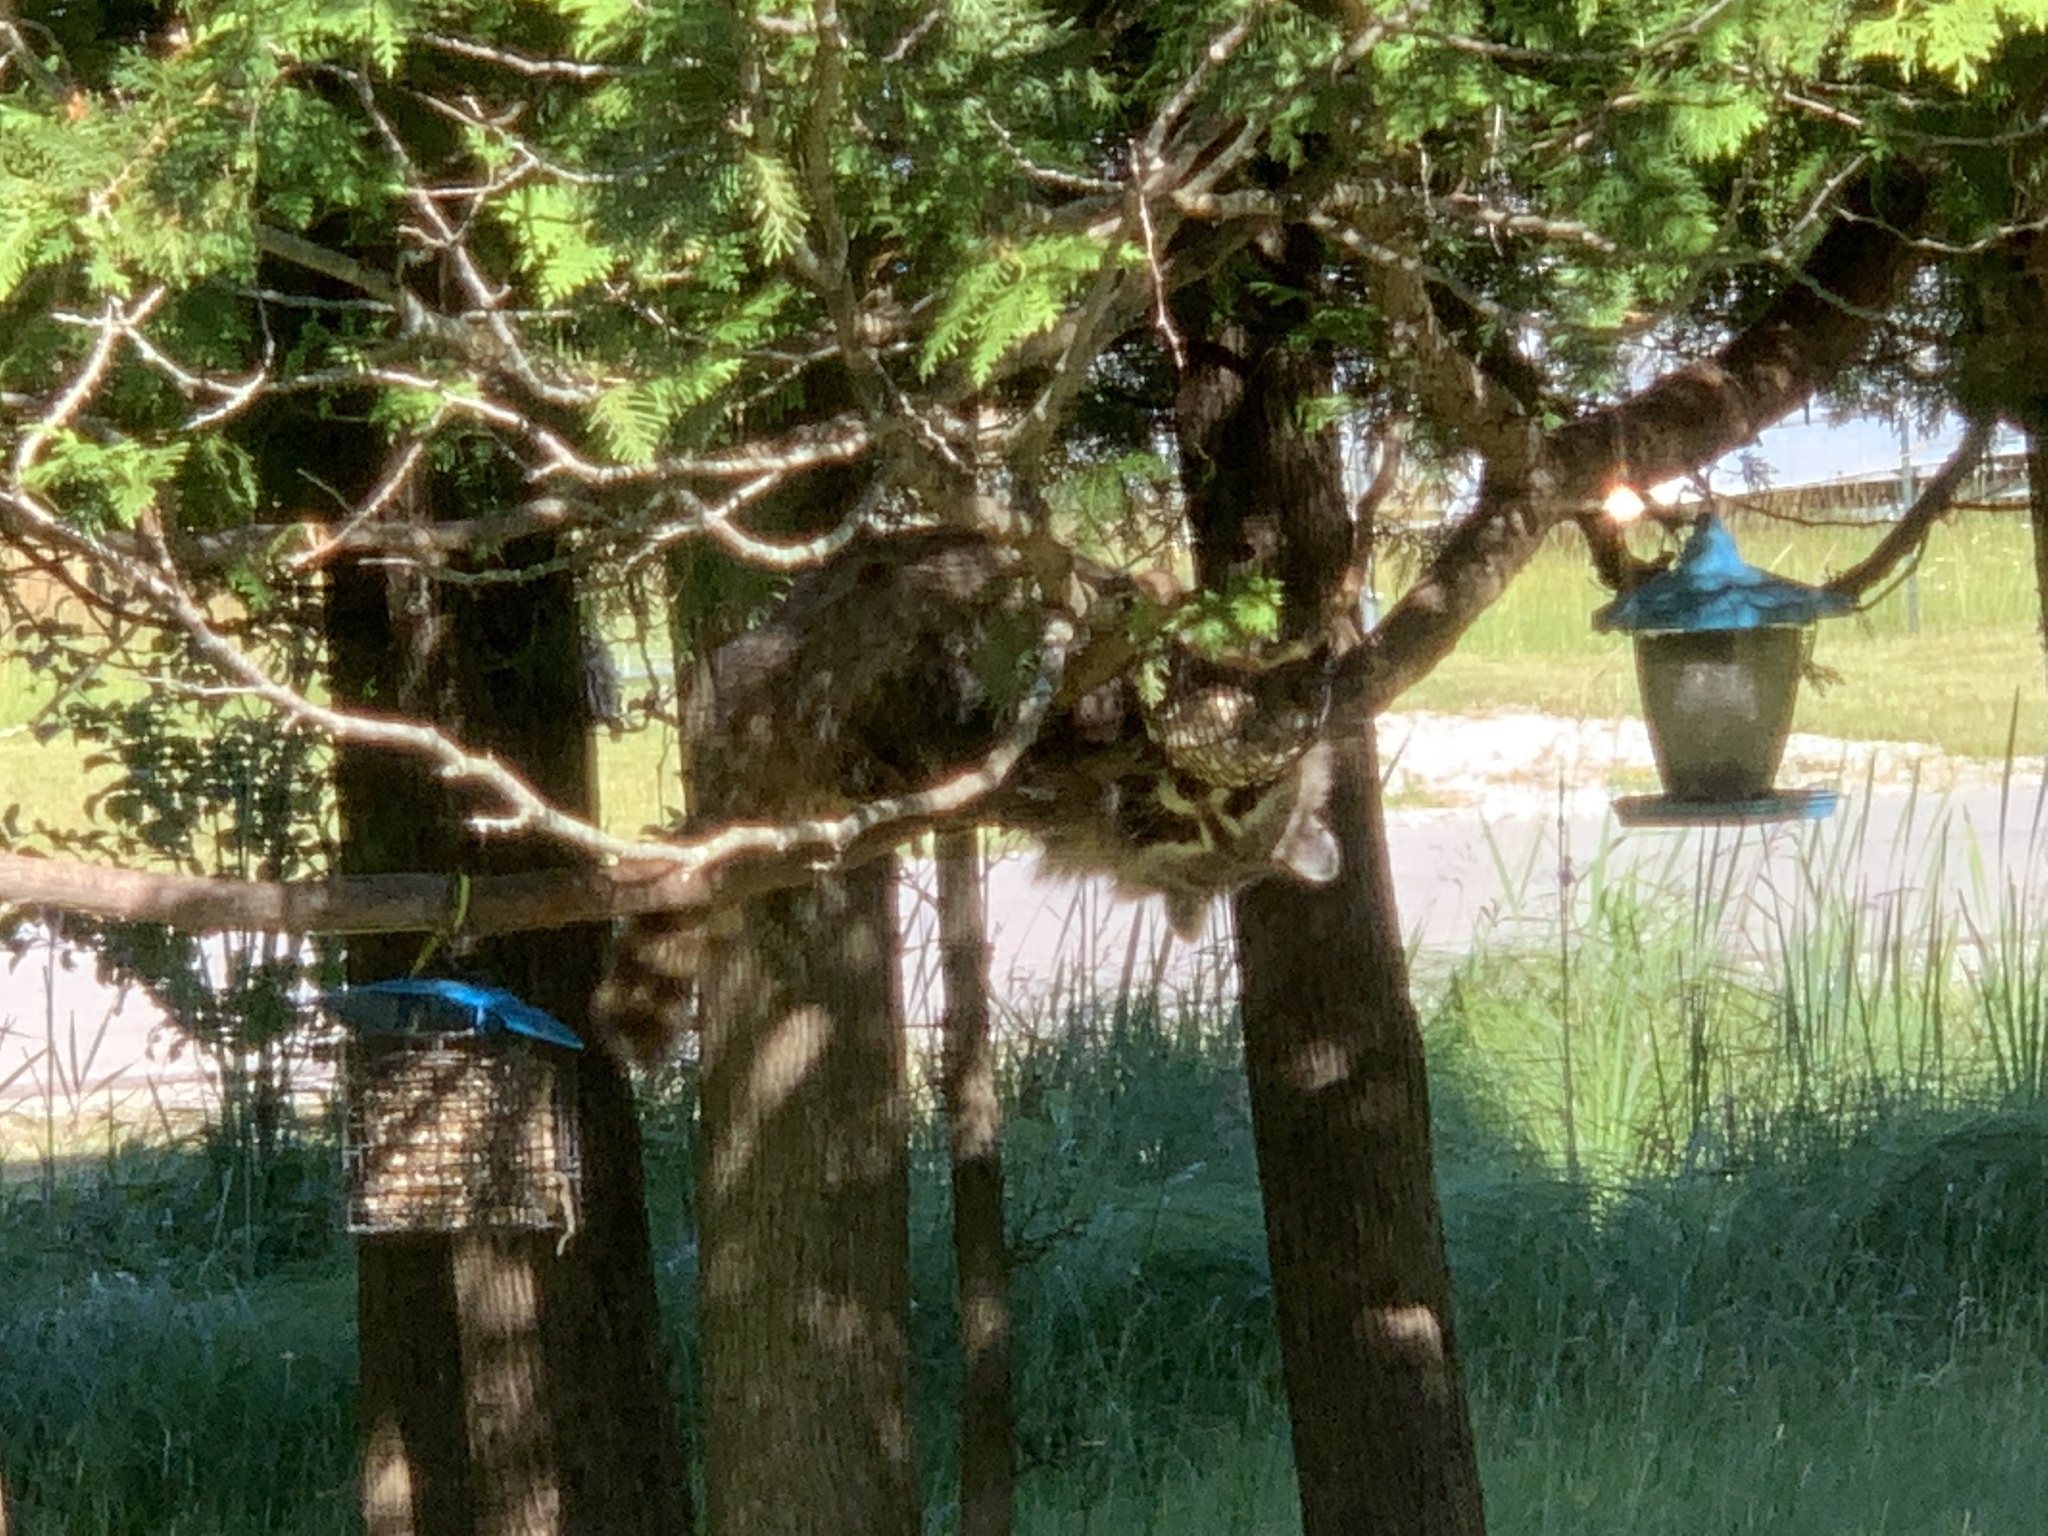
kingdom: Animalia
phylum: Chordata
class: Mammalia
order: Carnivora
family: Procyonidae
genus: Procyon
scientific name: Procyon lotor
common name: Raccoon
